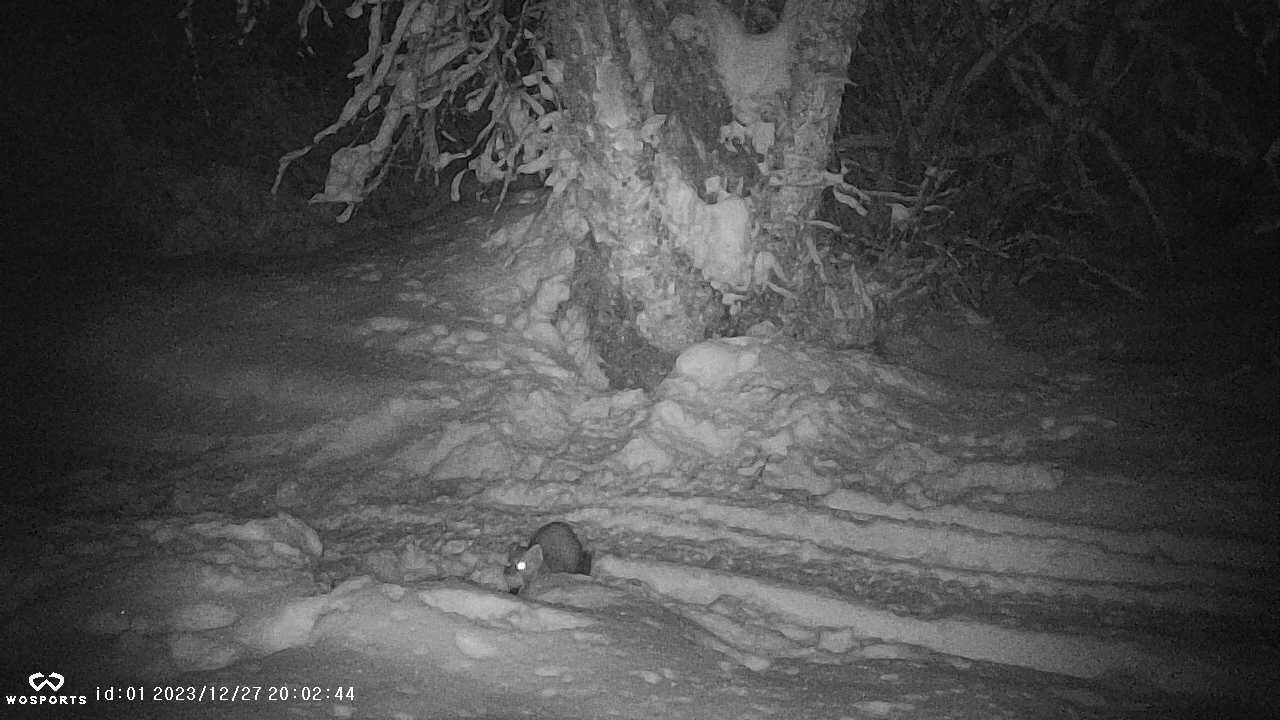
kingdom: Animalia
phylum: Chordata
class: Mammalia
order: Carnivora
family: Mustelidae
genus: Martes
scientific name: Martes americana
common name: American marten
